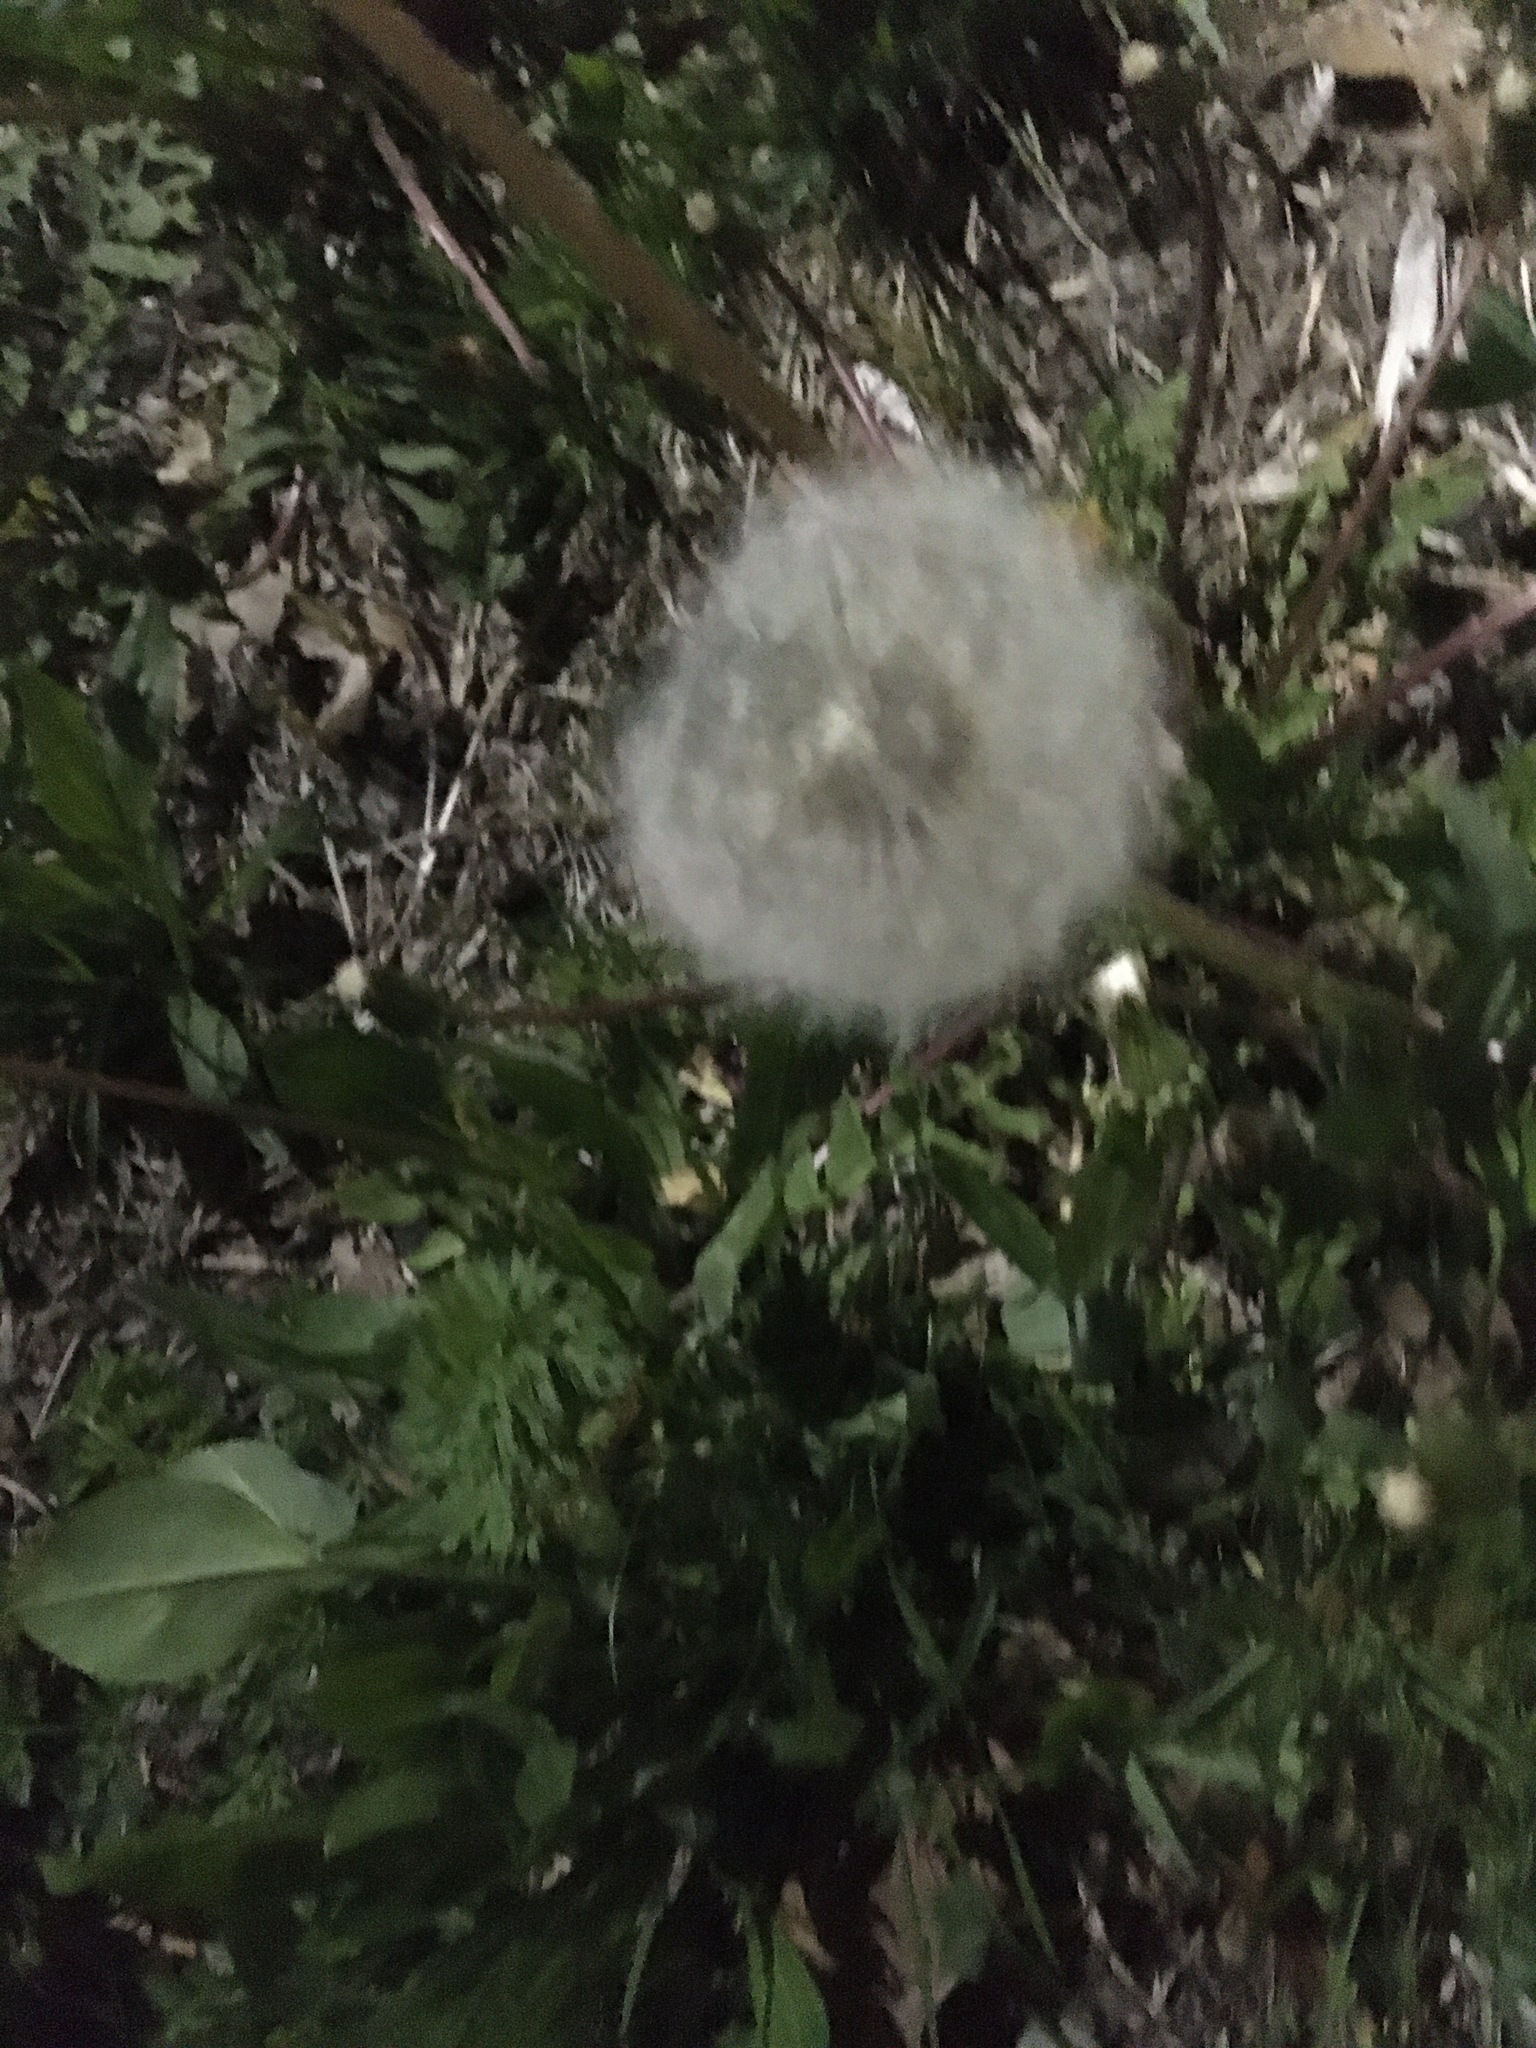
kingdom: Plantae
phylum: Tracheophyta
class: Magnoliopsida
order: Asterales
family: Asteraceae
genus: Taraxacum
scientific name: Taraxacum officinale
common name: Common dandelion
